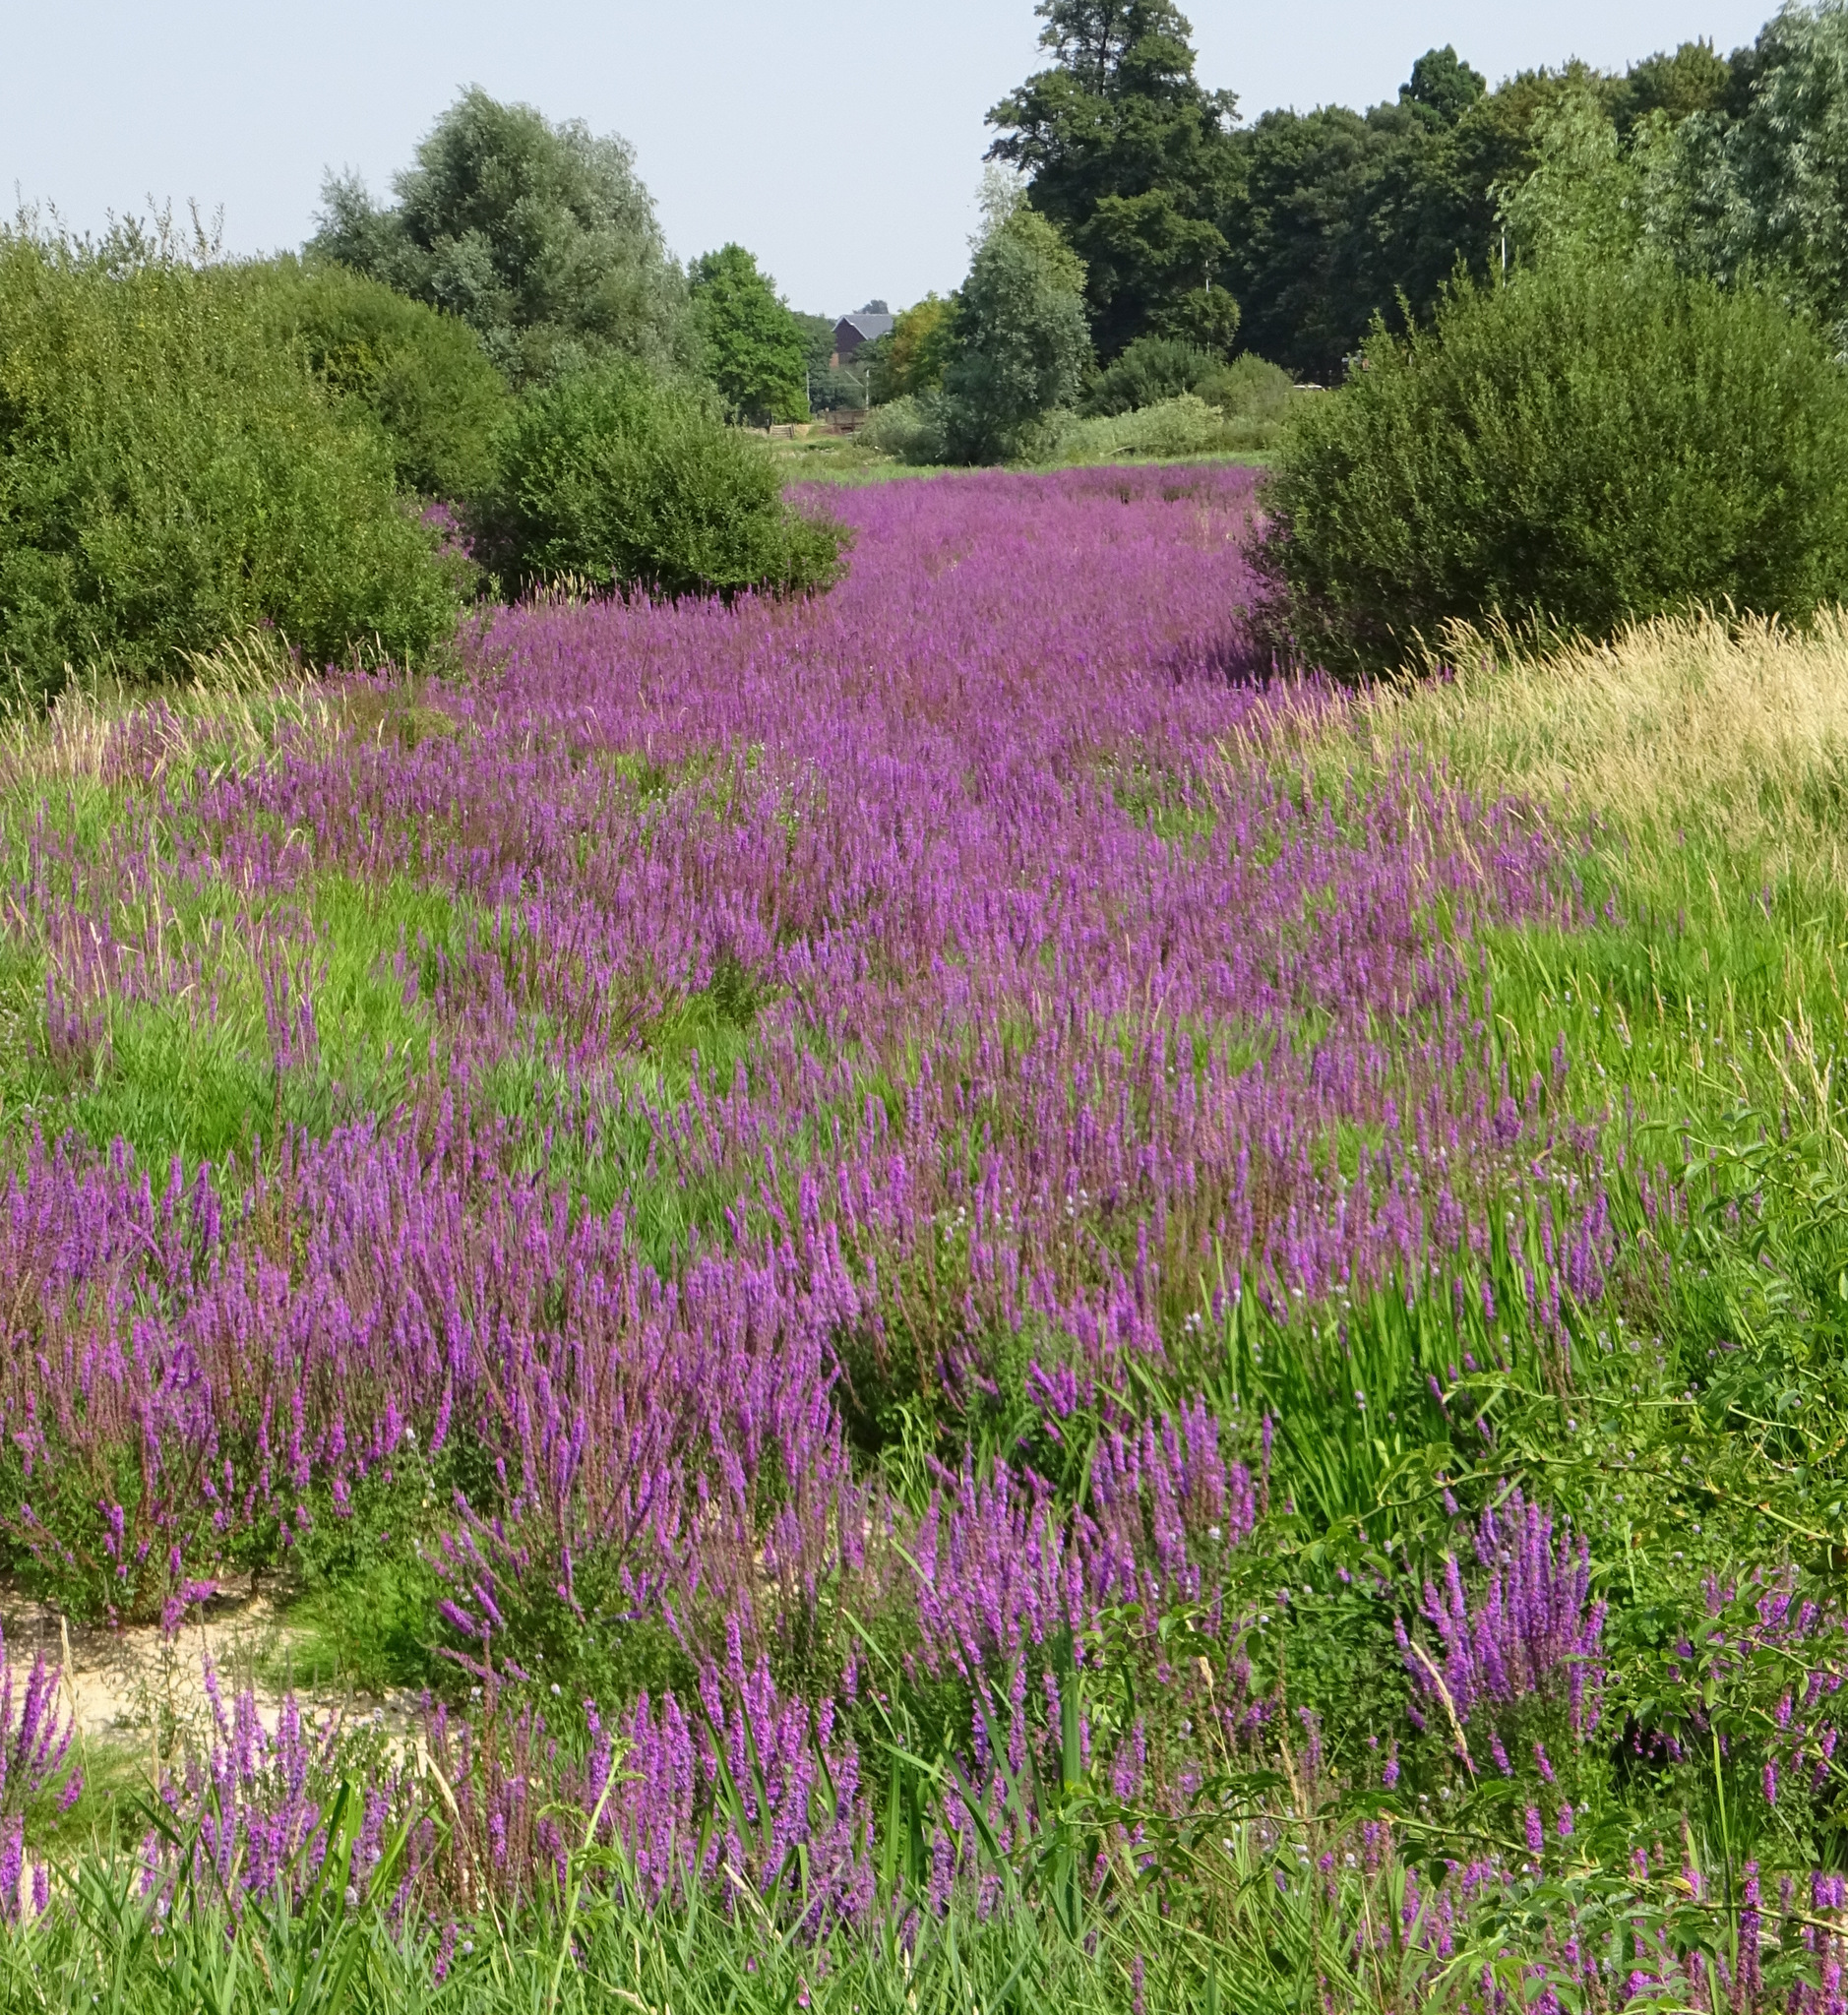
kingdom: Plantae
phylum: Tracheophyta
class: Magnoliopsida
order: Myrtales
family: Lythraceae
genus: Lythrum
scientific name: Lythrum salicaria
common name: Purple loosestrife
